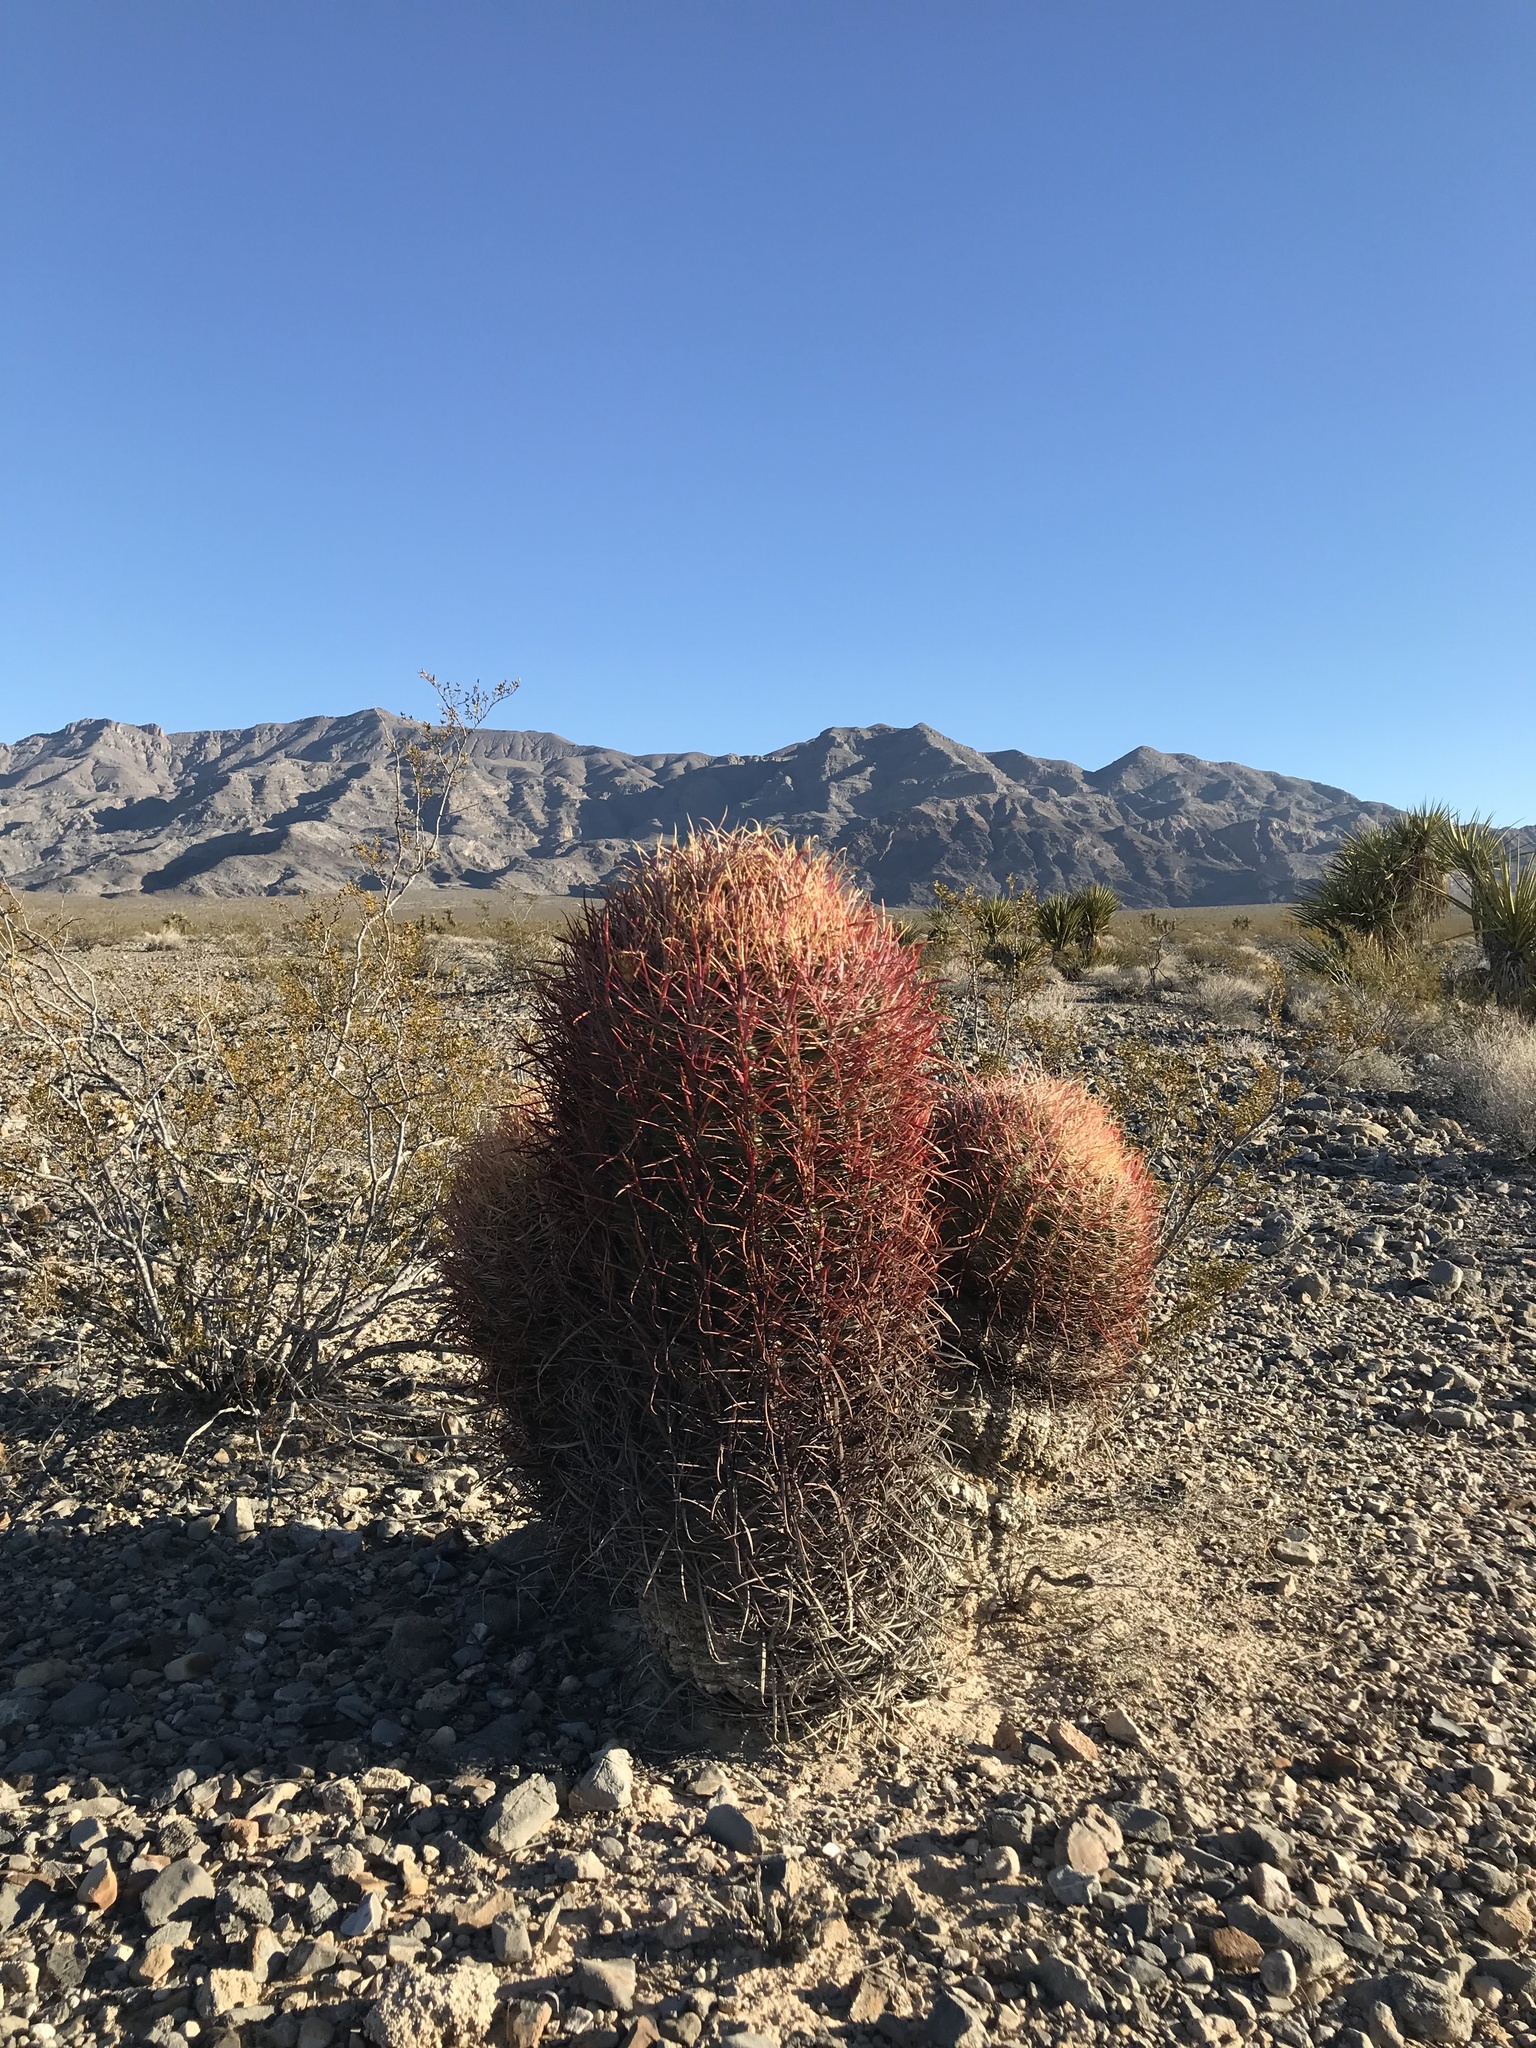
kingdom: Plantae
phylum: Tracheophyta
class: Magnoliopsida
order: Caryophyllales
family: Cactaceae
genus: Ferocactus
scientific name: Ferocactus cylindraceus
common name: California barrel cactus
